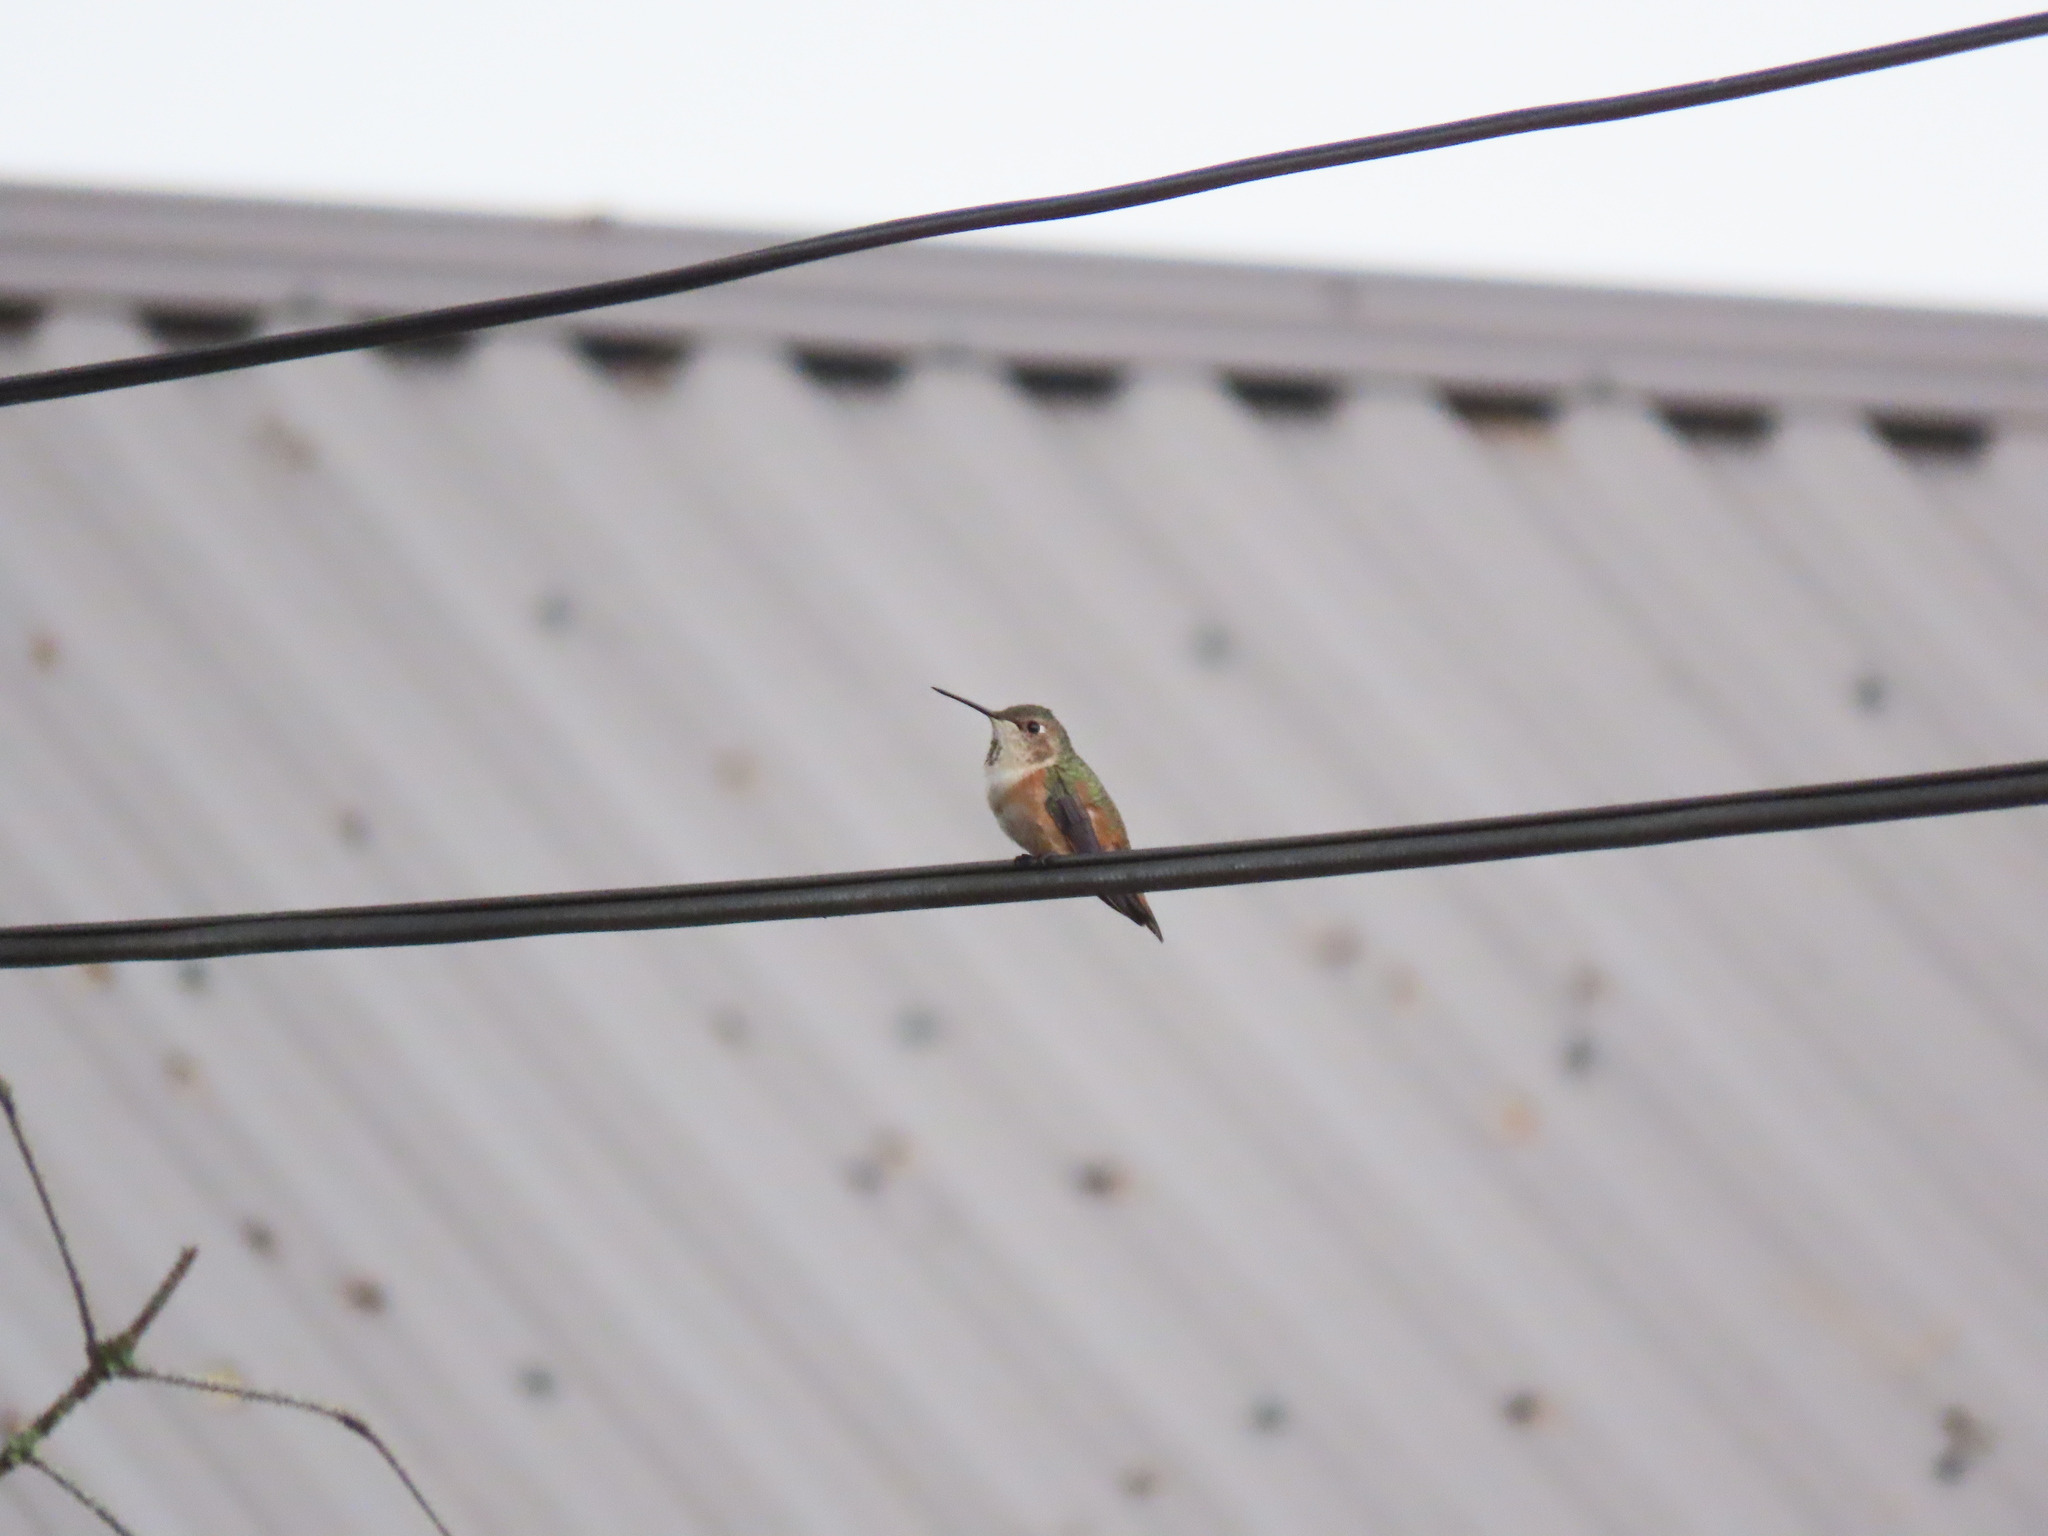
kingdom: Animalia
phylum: Chordata
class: Aves
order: Apodiformes
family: Trochilidae
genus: Selasphorus
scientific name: Selasphorus rufus
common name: Rufous hummingbird
